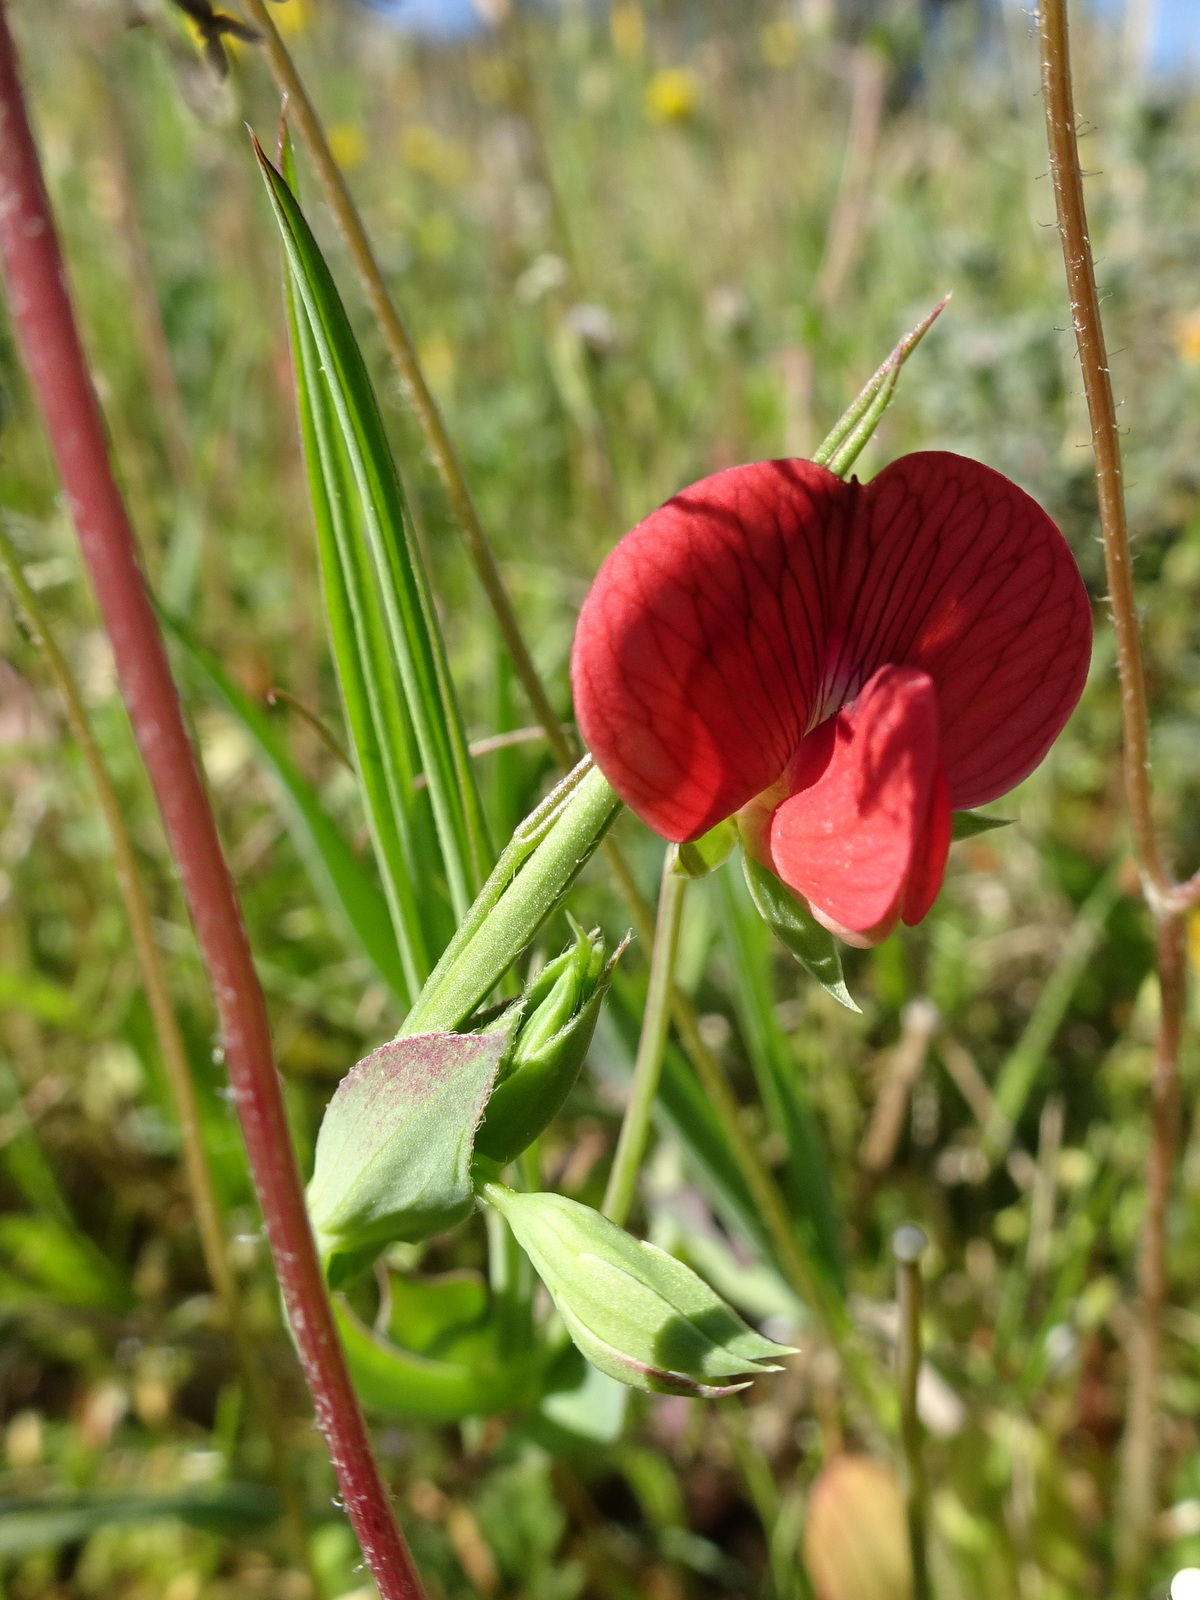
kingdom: Plantae
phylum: Tracheophyta
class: Magnoliopsida
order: Fabales
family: Fabaceae
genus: Lathyrus
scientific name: Lathyrus cicera
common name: Red vetchling
